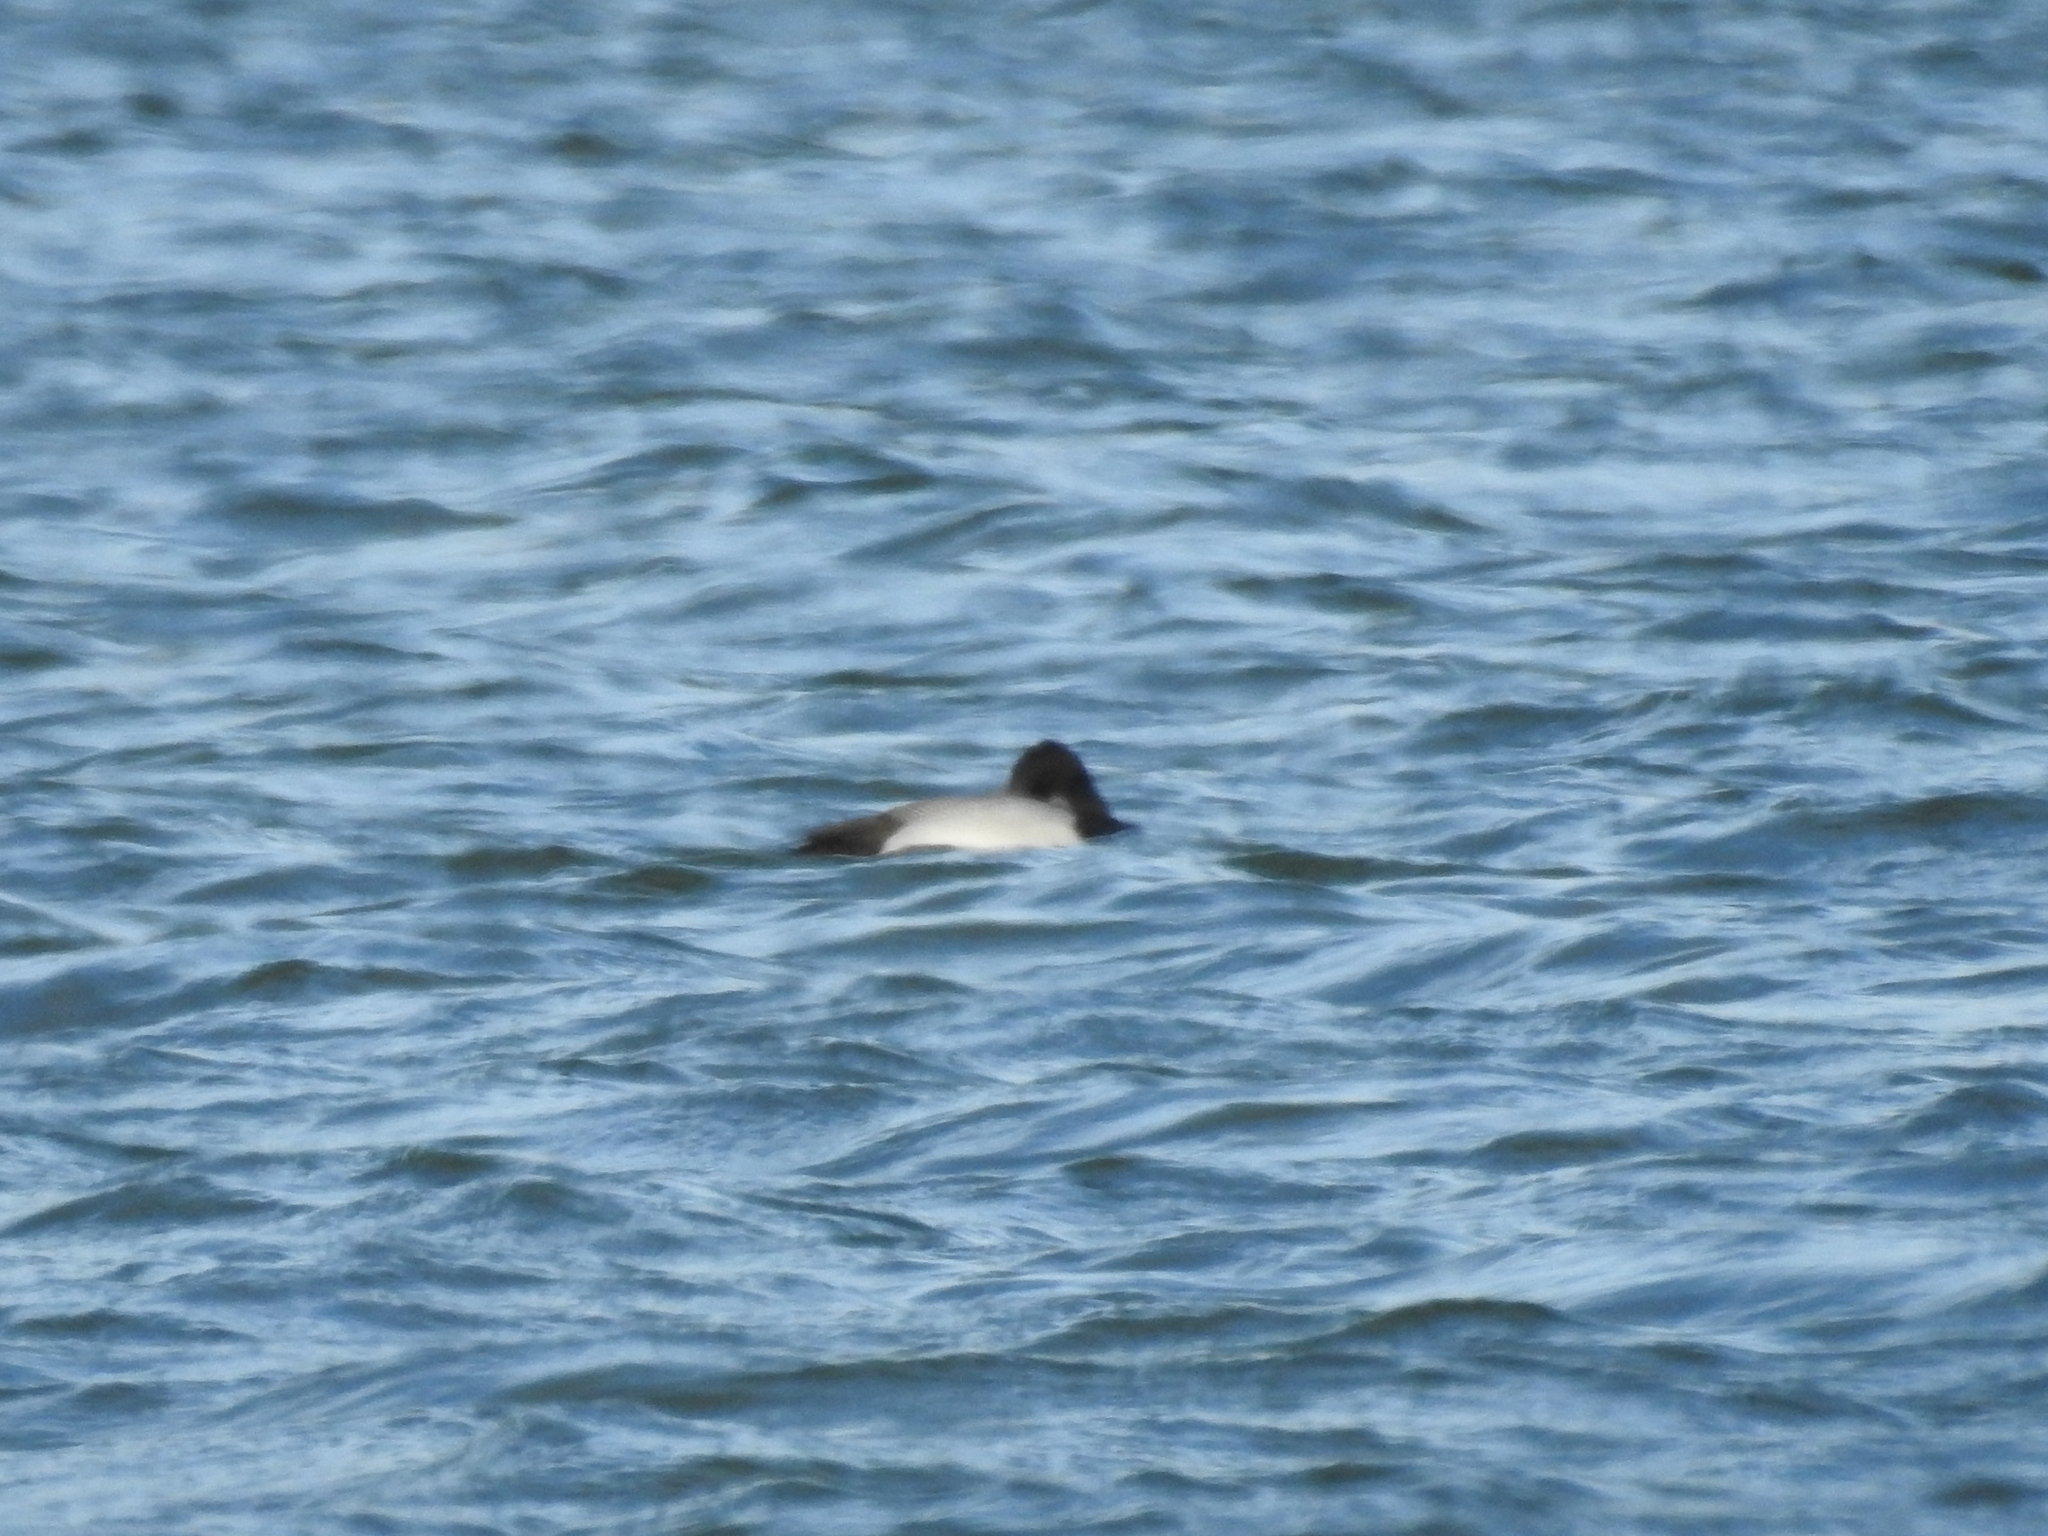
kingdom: Animalia
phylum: Chordata
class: Aves
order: Anseriformes
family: Anatidae
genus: Aythya
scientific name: Aythya affinis
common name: Lesser scaup
